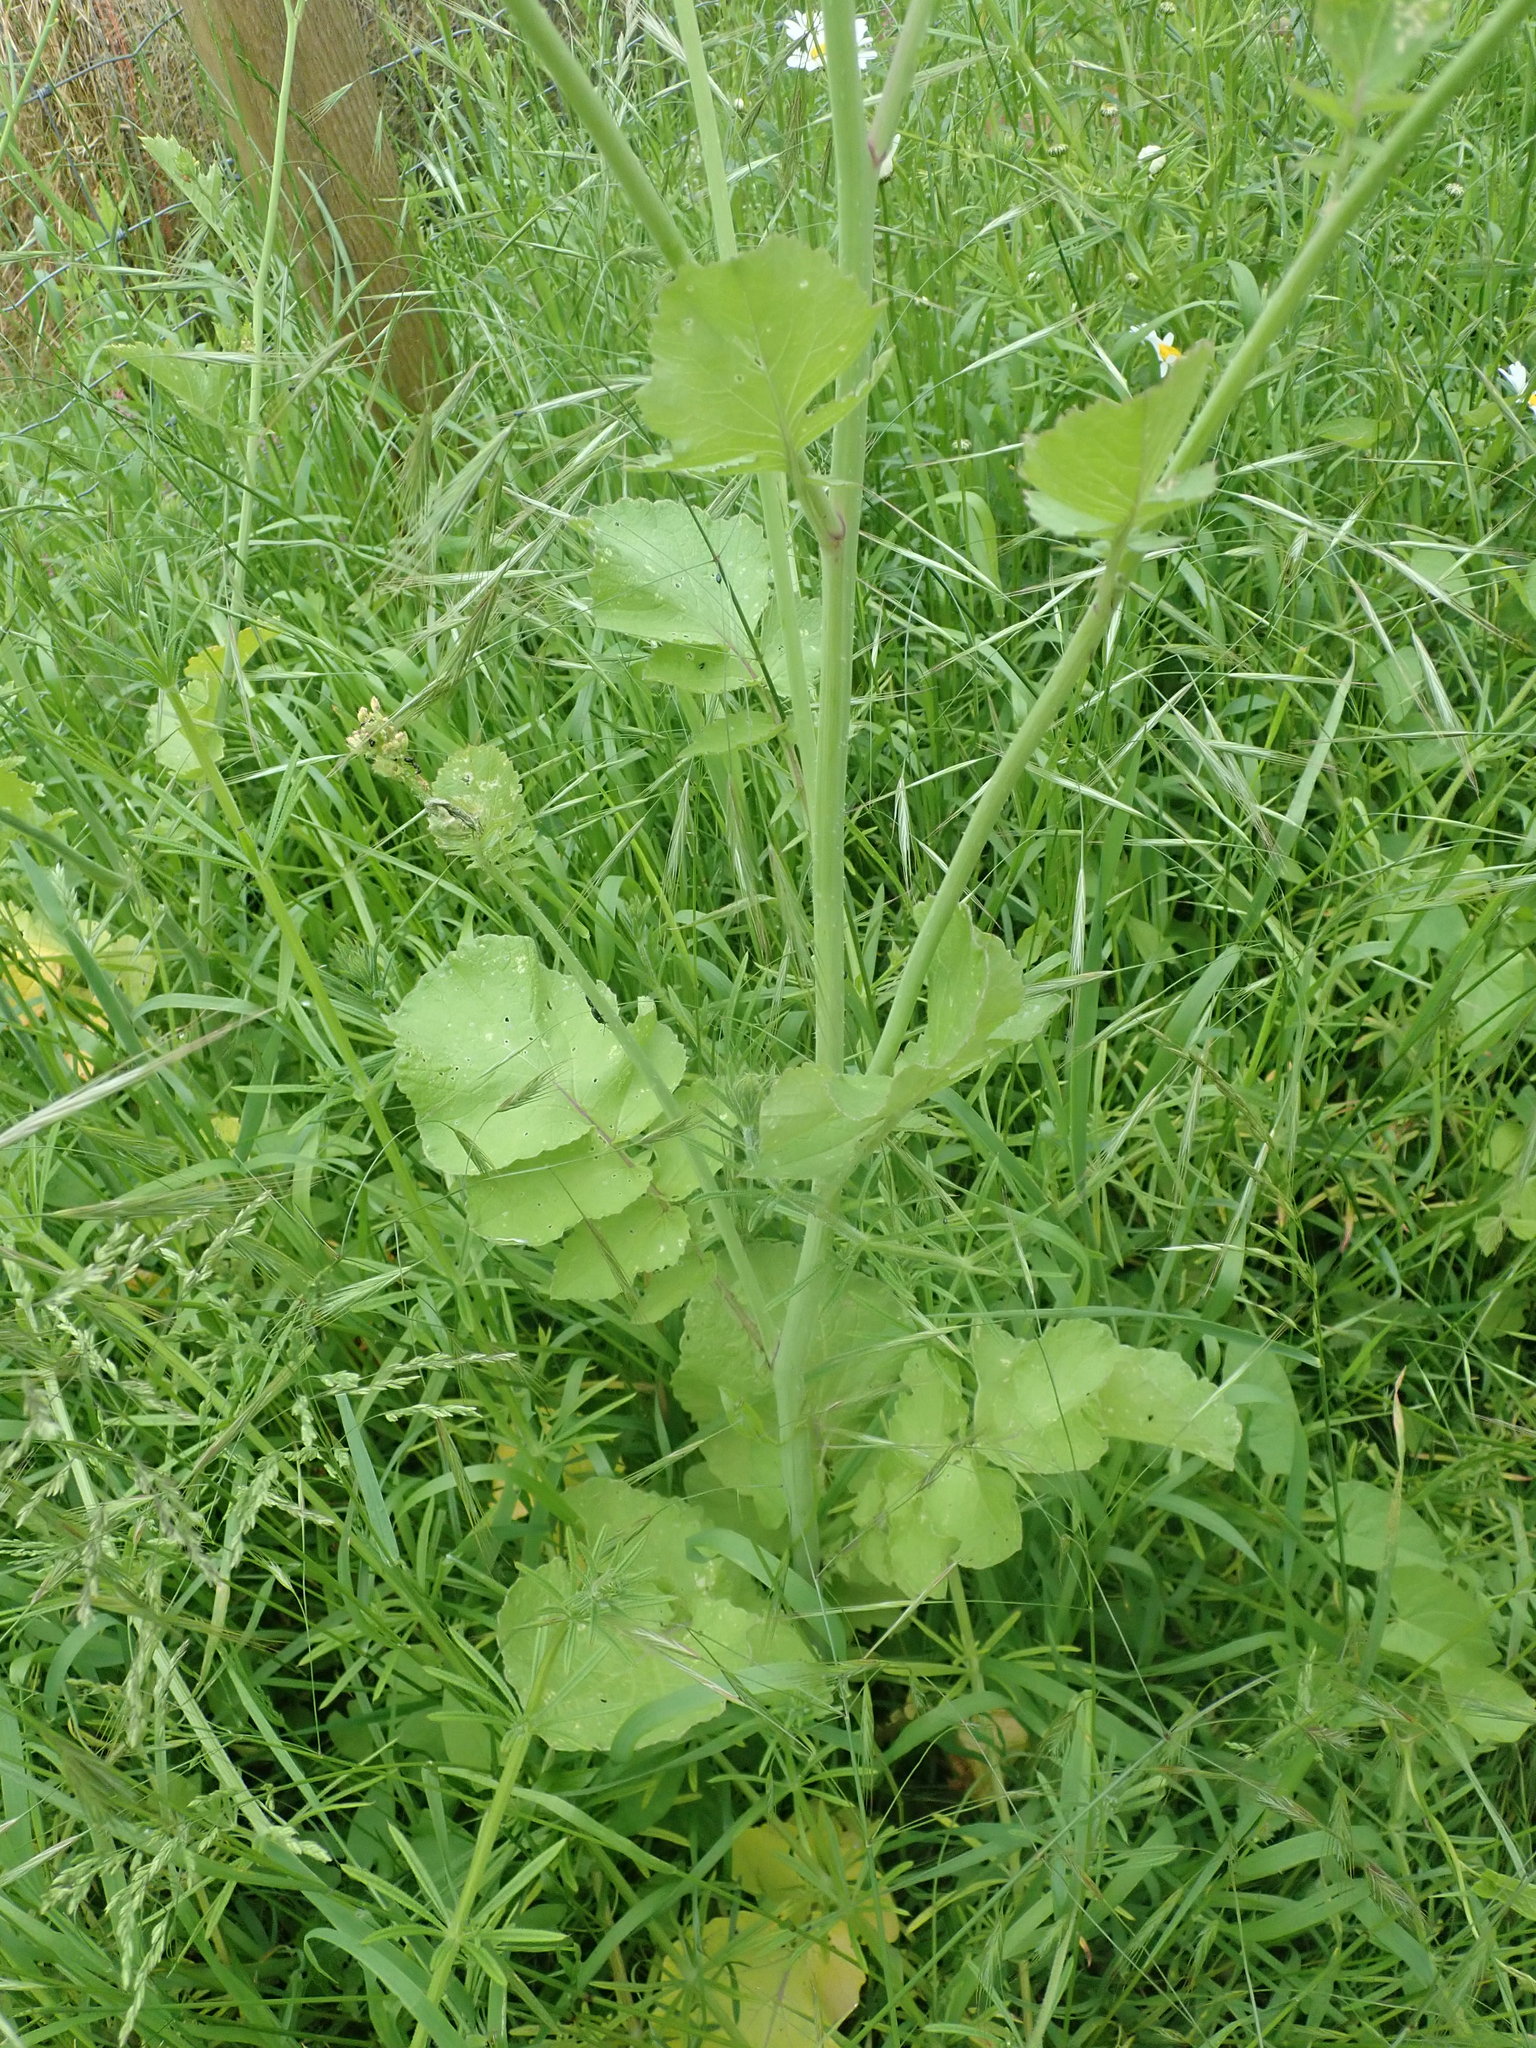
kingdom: Plantae
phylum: Tracheophyta
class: Magnoliopsida
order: Brassicales
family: Brassicaceae
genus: Raphanus
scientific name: Raphanus sativus
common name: Cultivated radish
